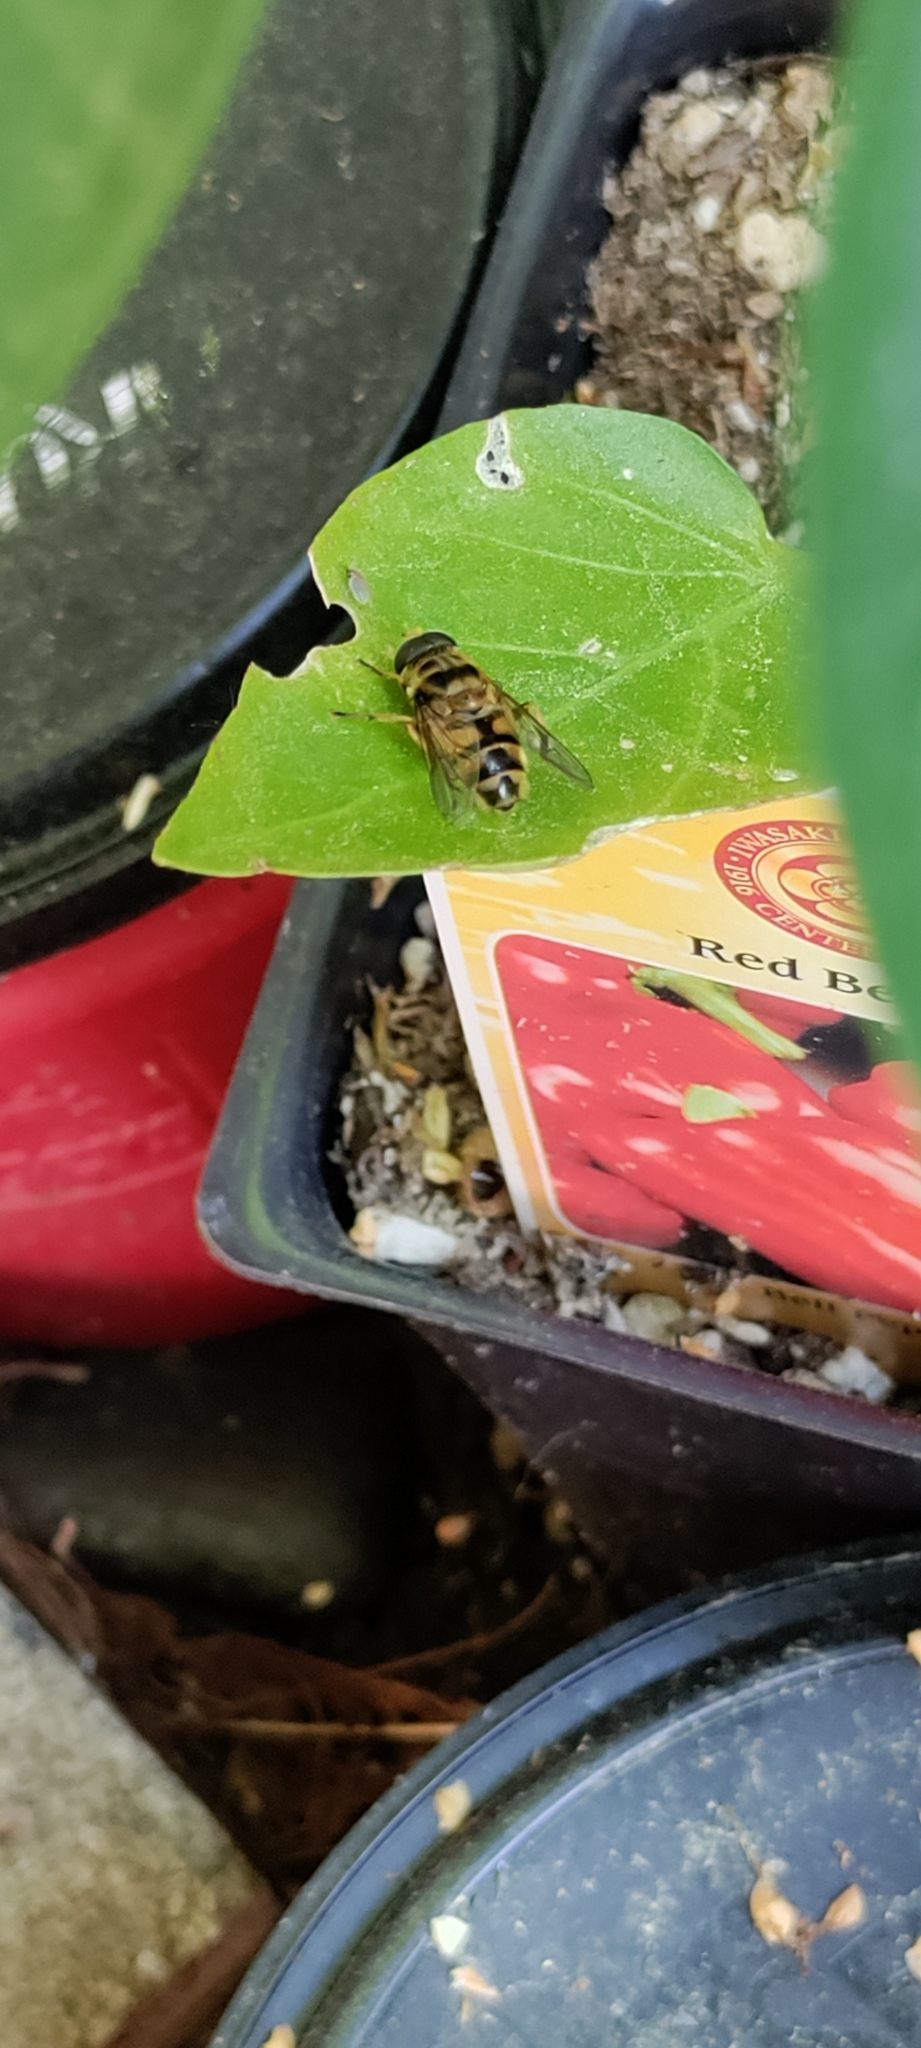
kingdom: Animalia
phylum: Arthropoda
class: Insecta
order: Diptera
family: Syrphidae
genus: Myathropa
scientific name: Myathropa florea
